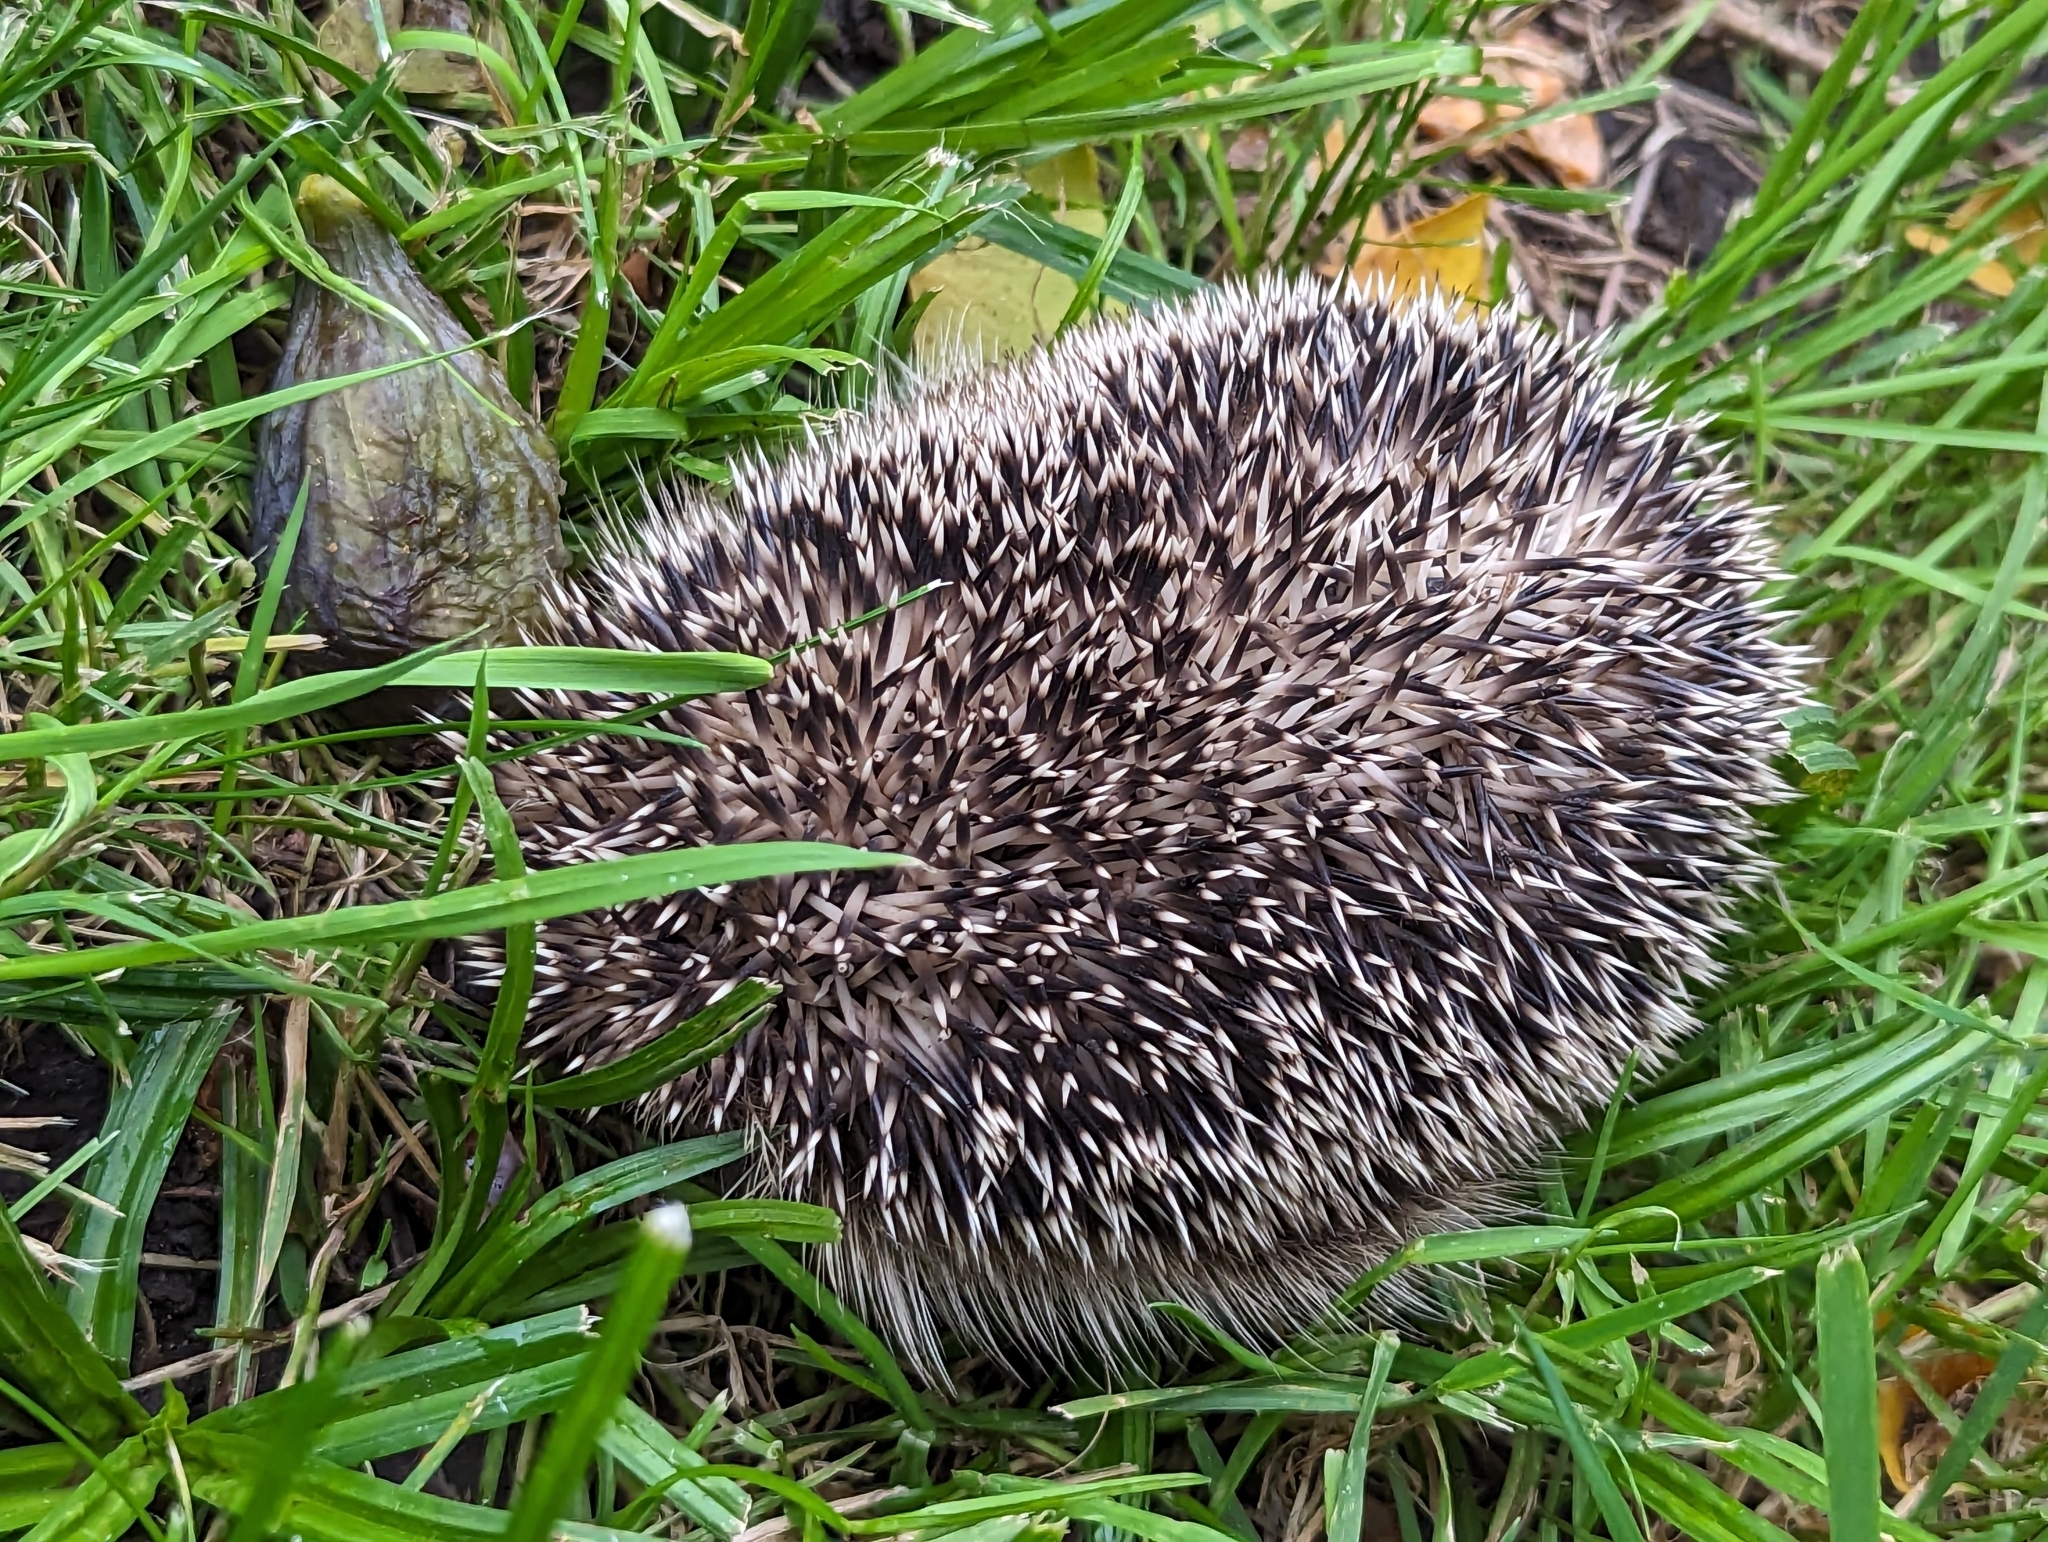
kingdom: Animalia
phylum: Chordata
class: Mammalia
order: Erinaceomorpha
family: Erinaceidae
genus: Erinaceus
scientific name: Erinaceus europaeus
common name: West european hedgehog
